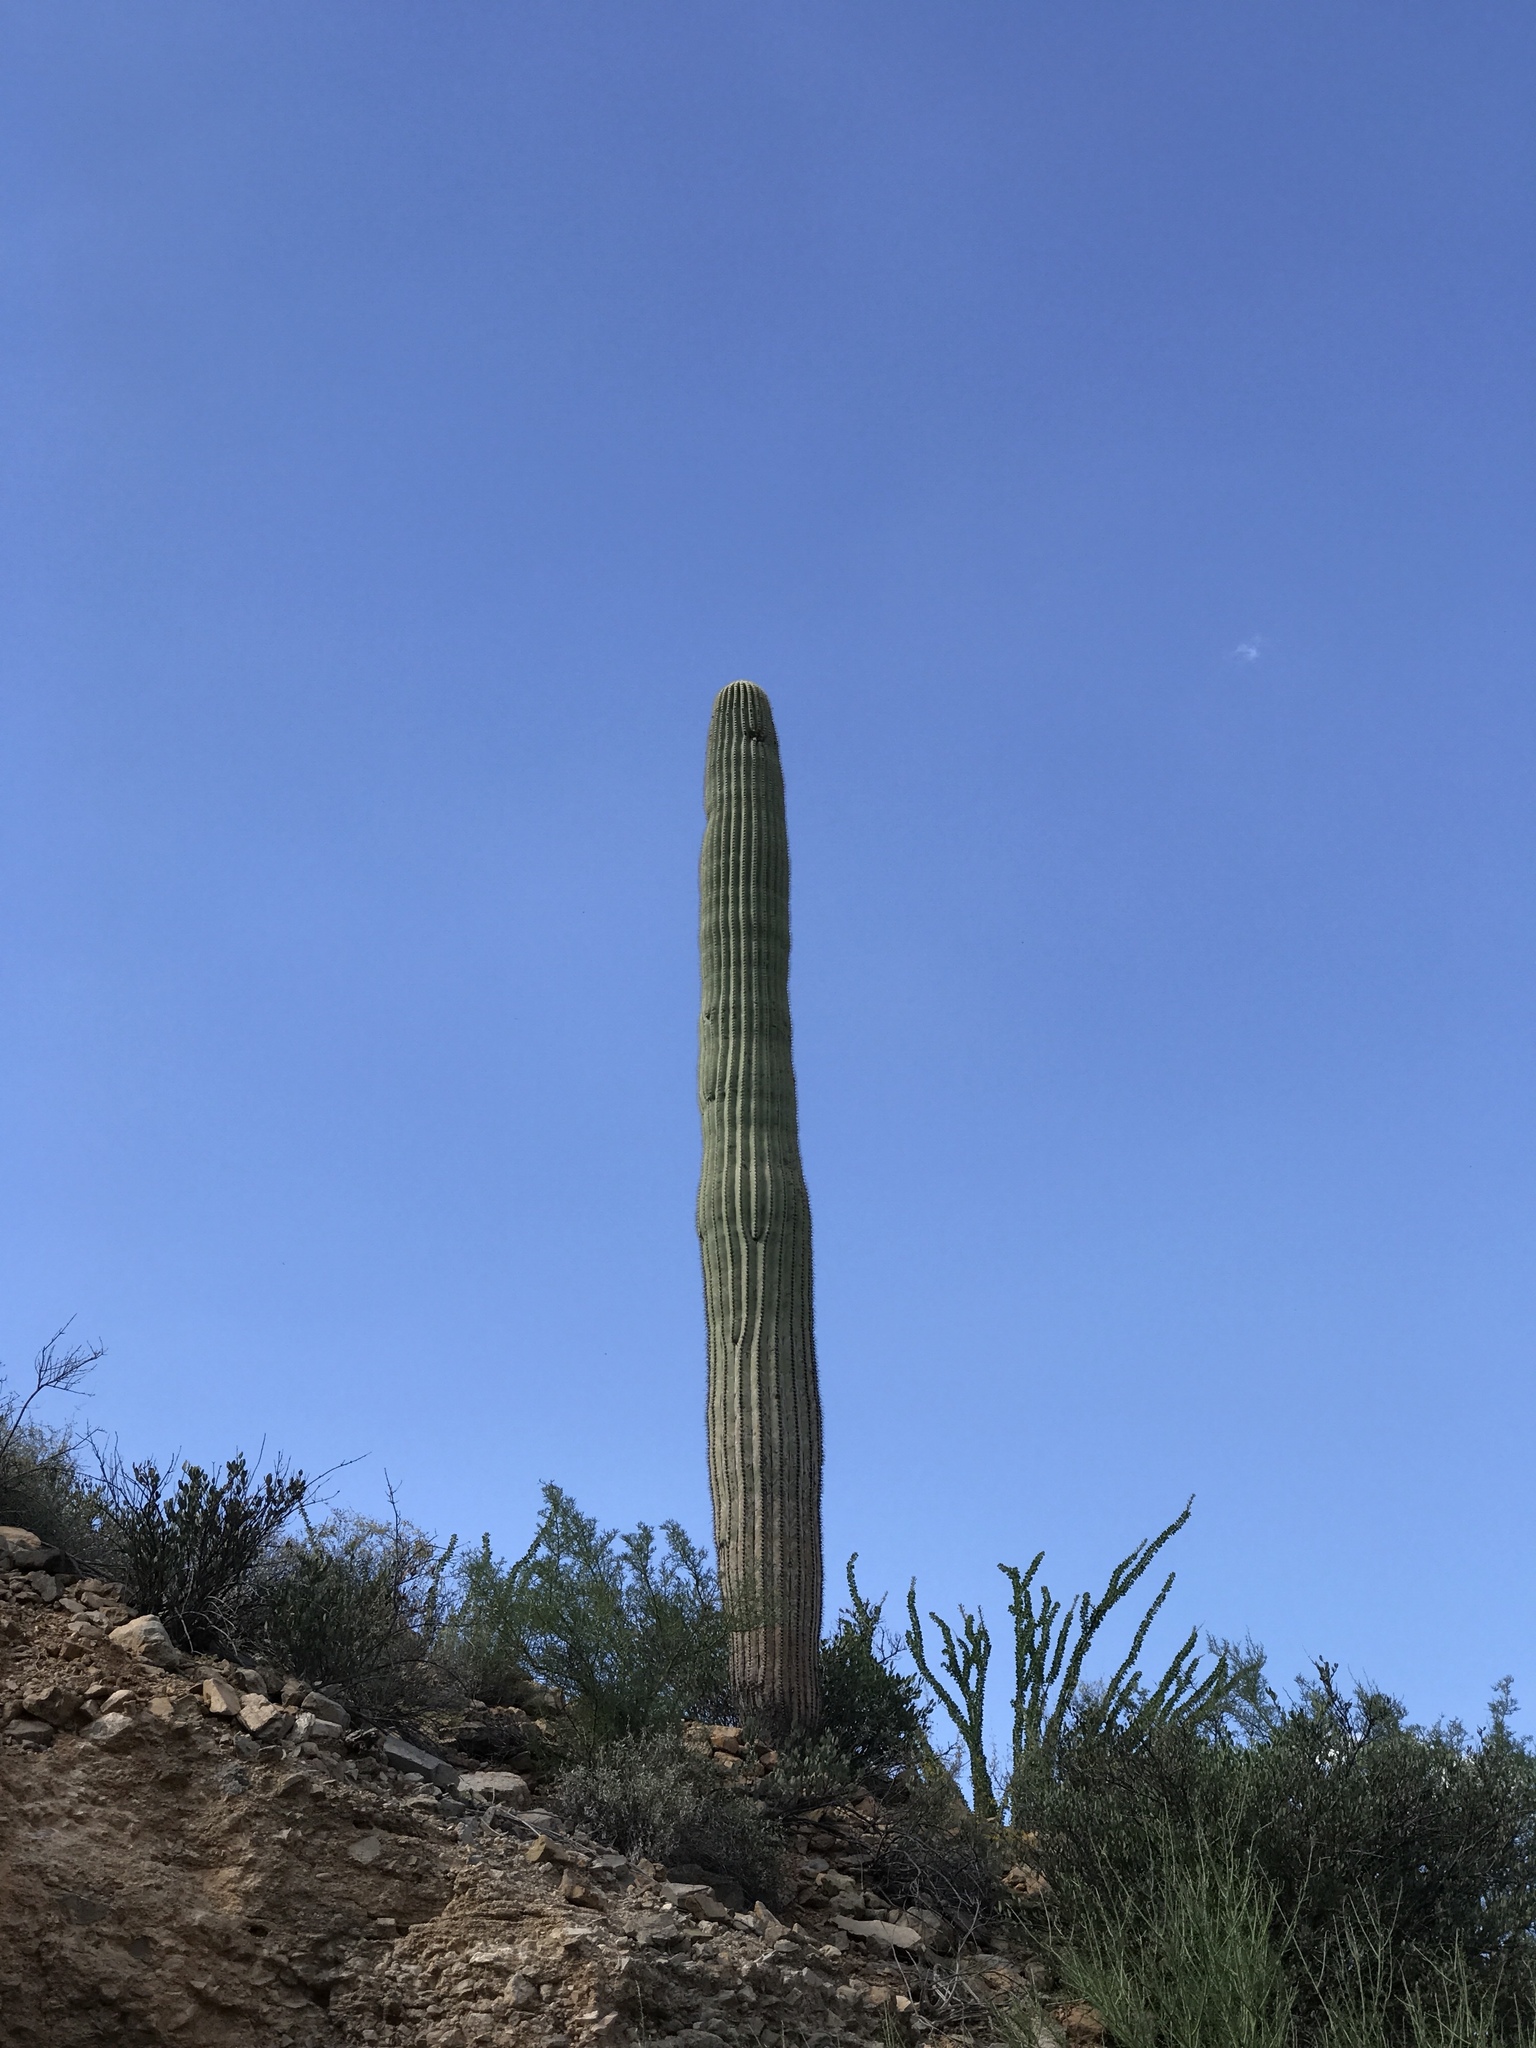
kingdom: Plantae
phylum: Tracheophyta
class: Magnoliopsida
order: Caryophyllales
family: Cactaceae
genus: Carnegiea
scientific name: Carnegiea gigantea
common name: Saguaro
